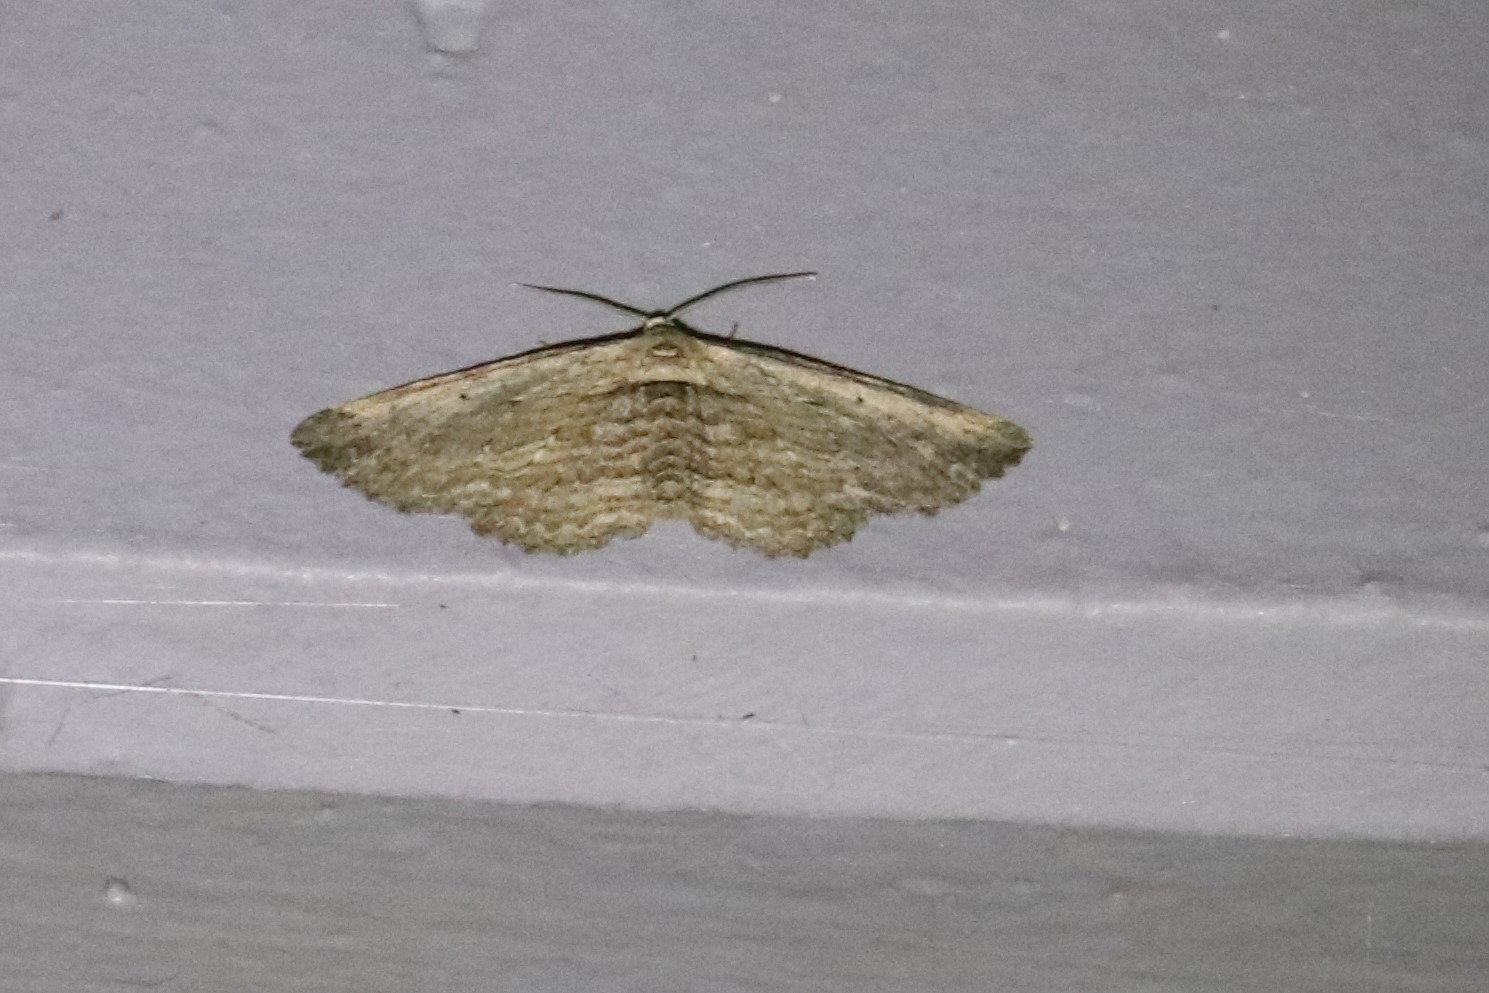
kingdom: Animalia
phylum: Arthropoda
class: Insecta
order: Lepidoptera
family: Geometridae
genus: Horisme
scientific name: Horisme intestinata
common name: Brown bark carpet
